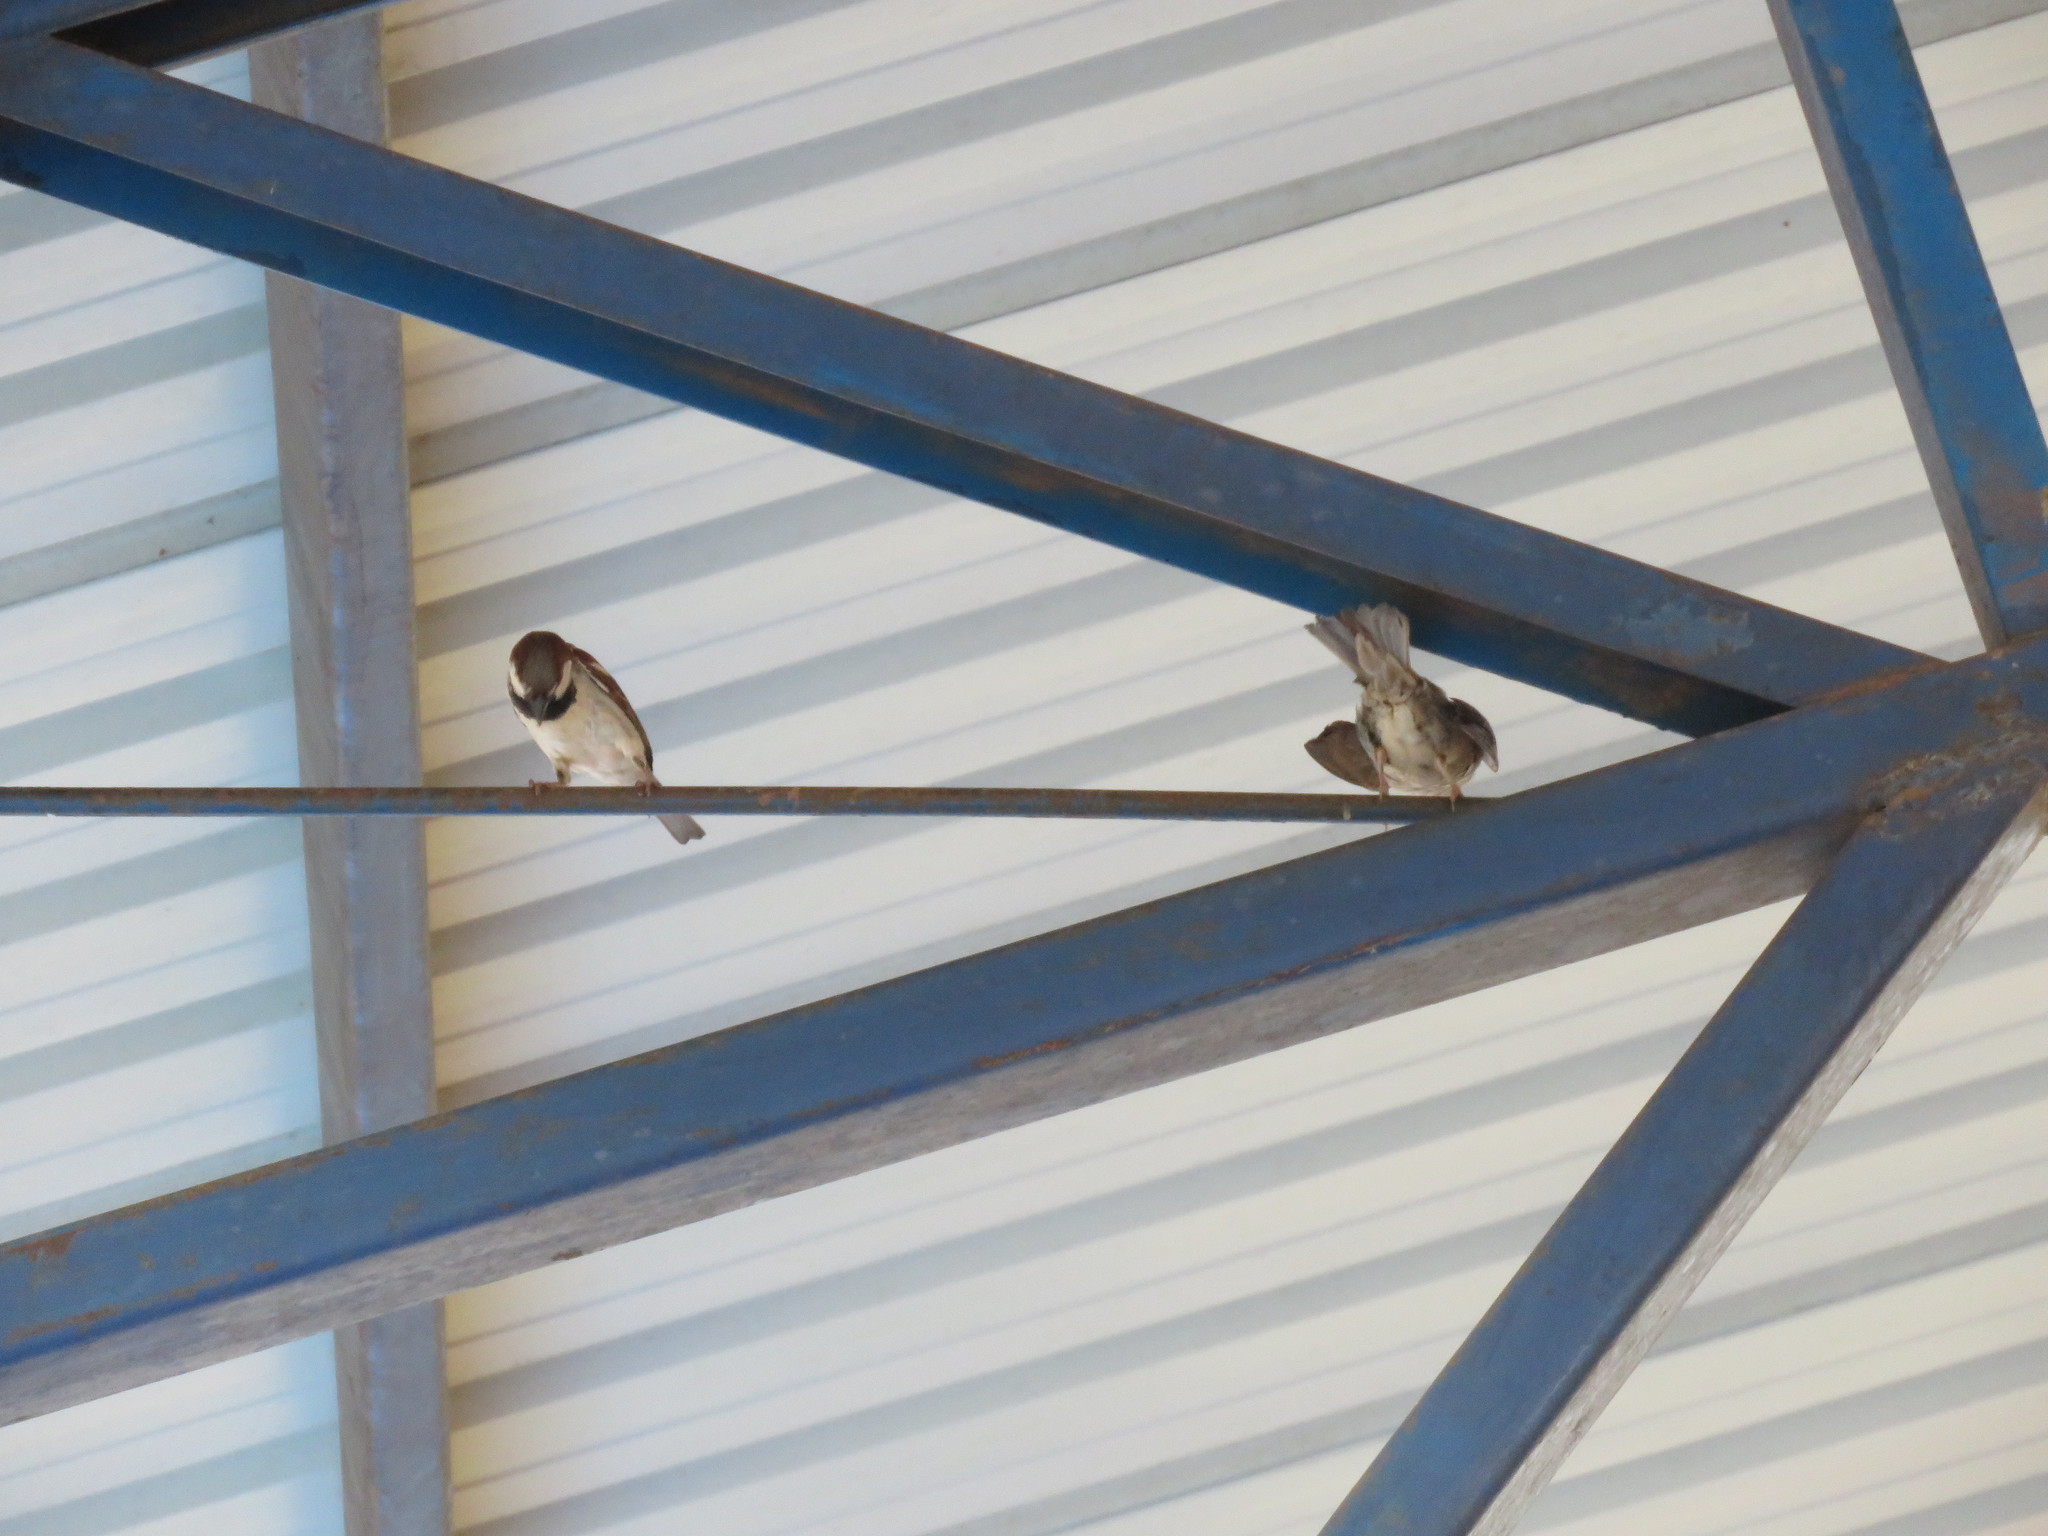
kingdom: Animalia
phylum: Chordata
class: Aves
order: Passeriformes
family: Passeridae
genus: Passer
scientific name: Passer domesticus
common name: House sparrow
